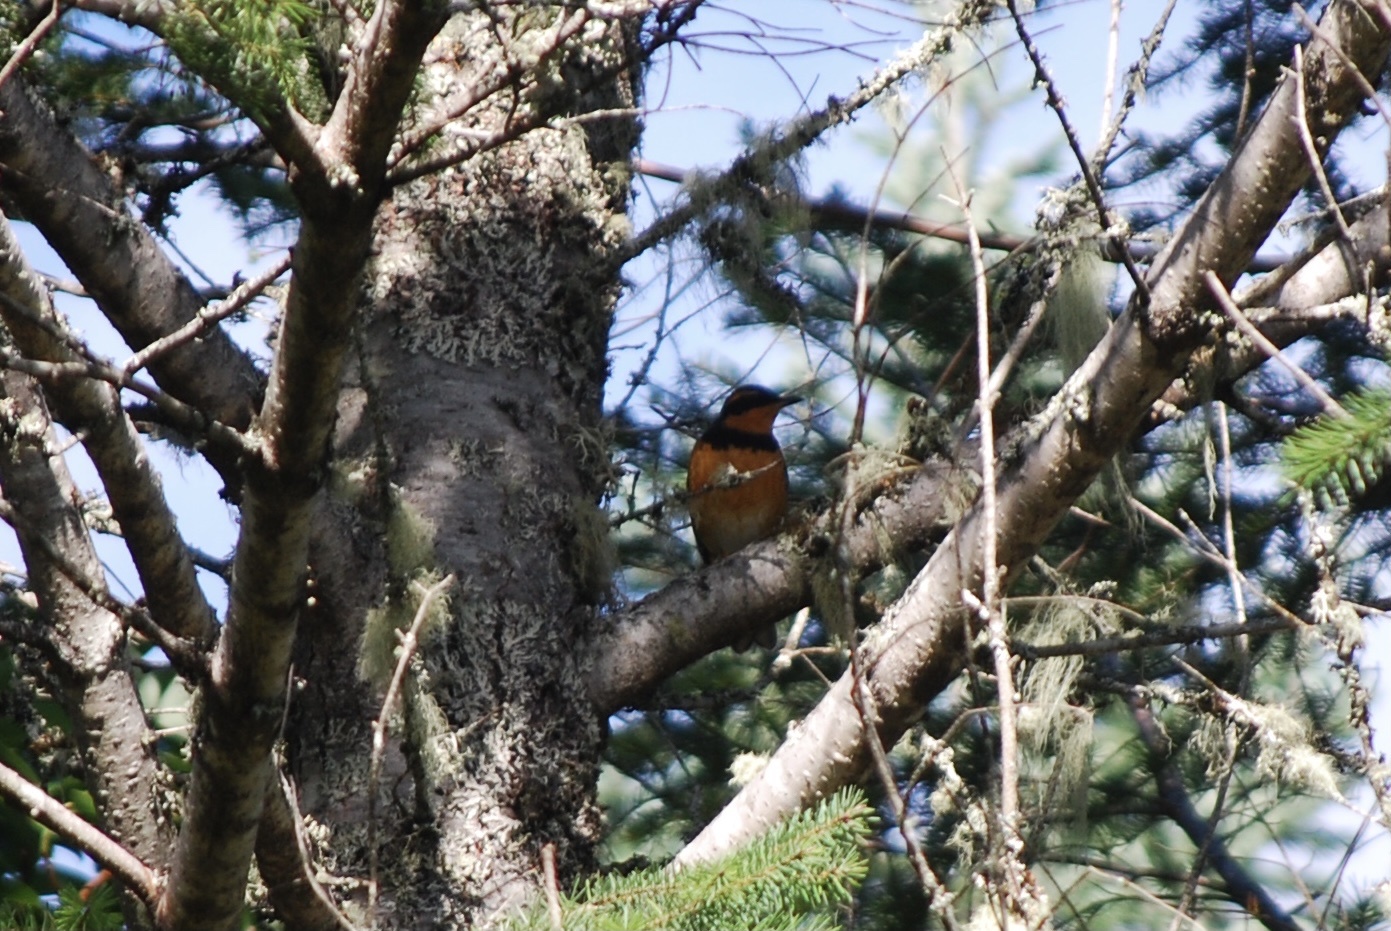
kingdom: Animalia
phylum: Chordata
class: Aves
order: Passeriformes
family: Turdidae
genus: Ixoreus
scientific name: Ixoreus naevius
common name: Varied thrush
